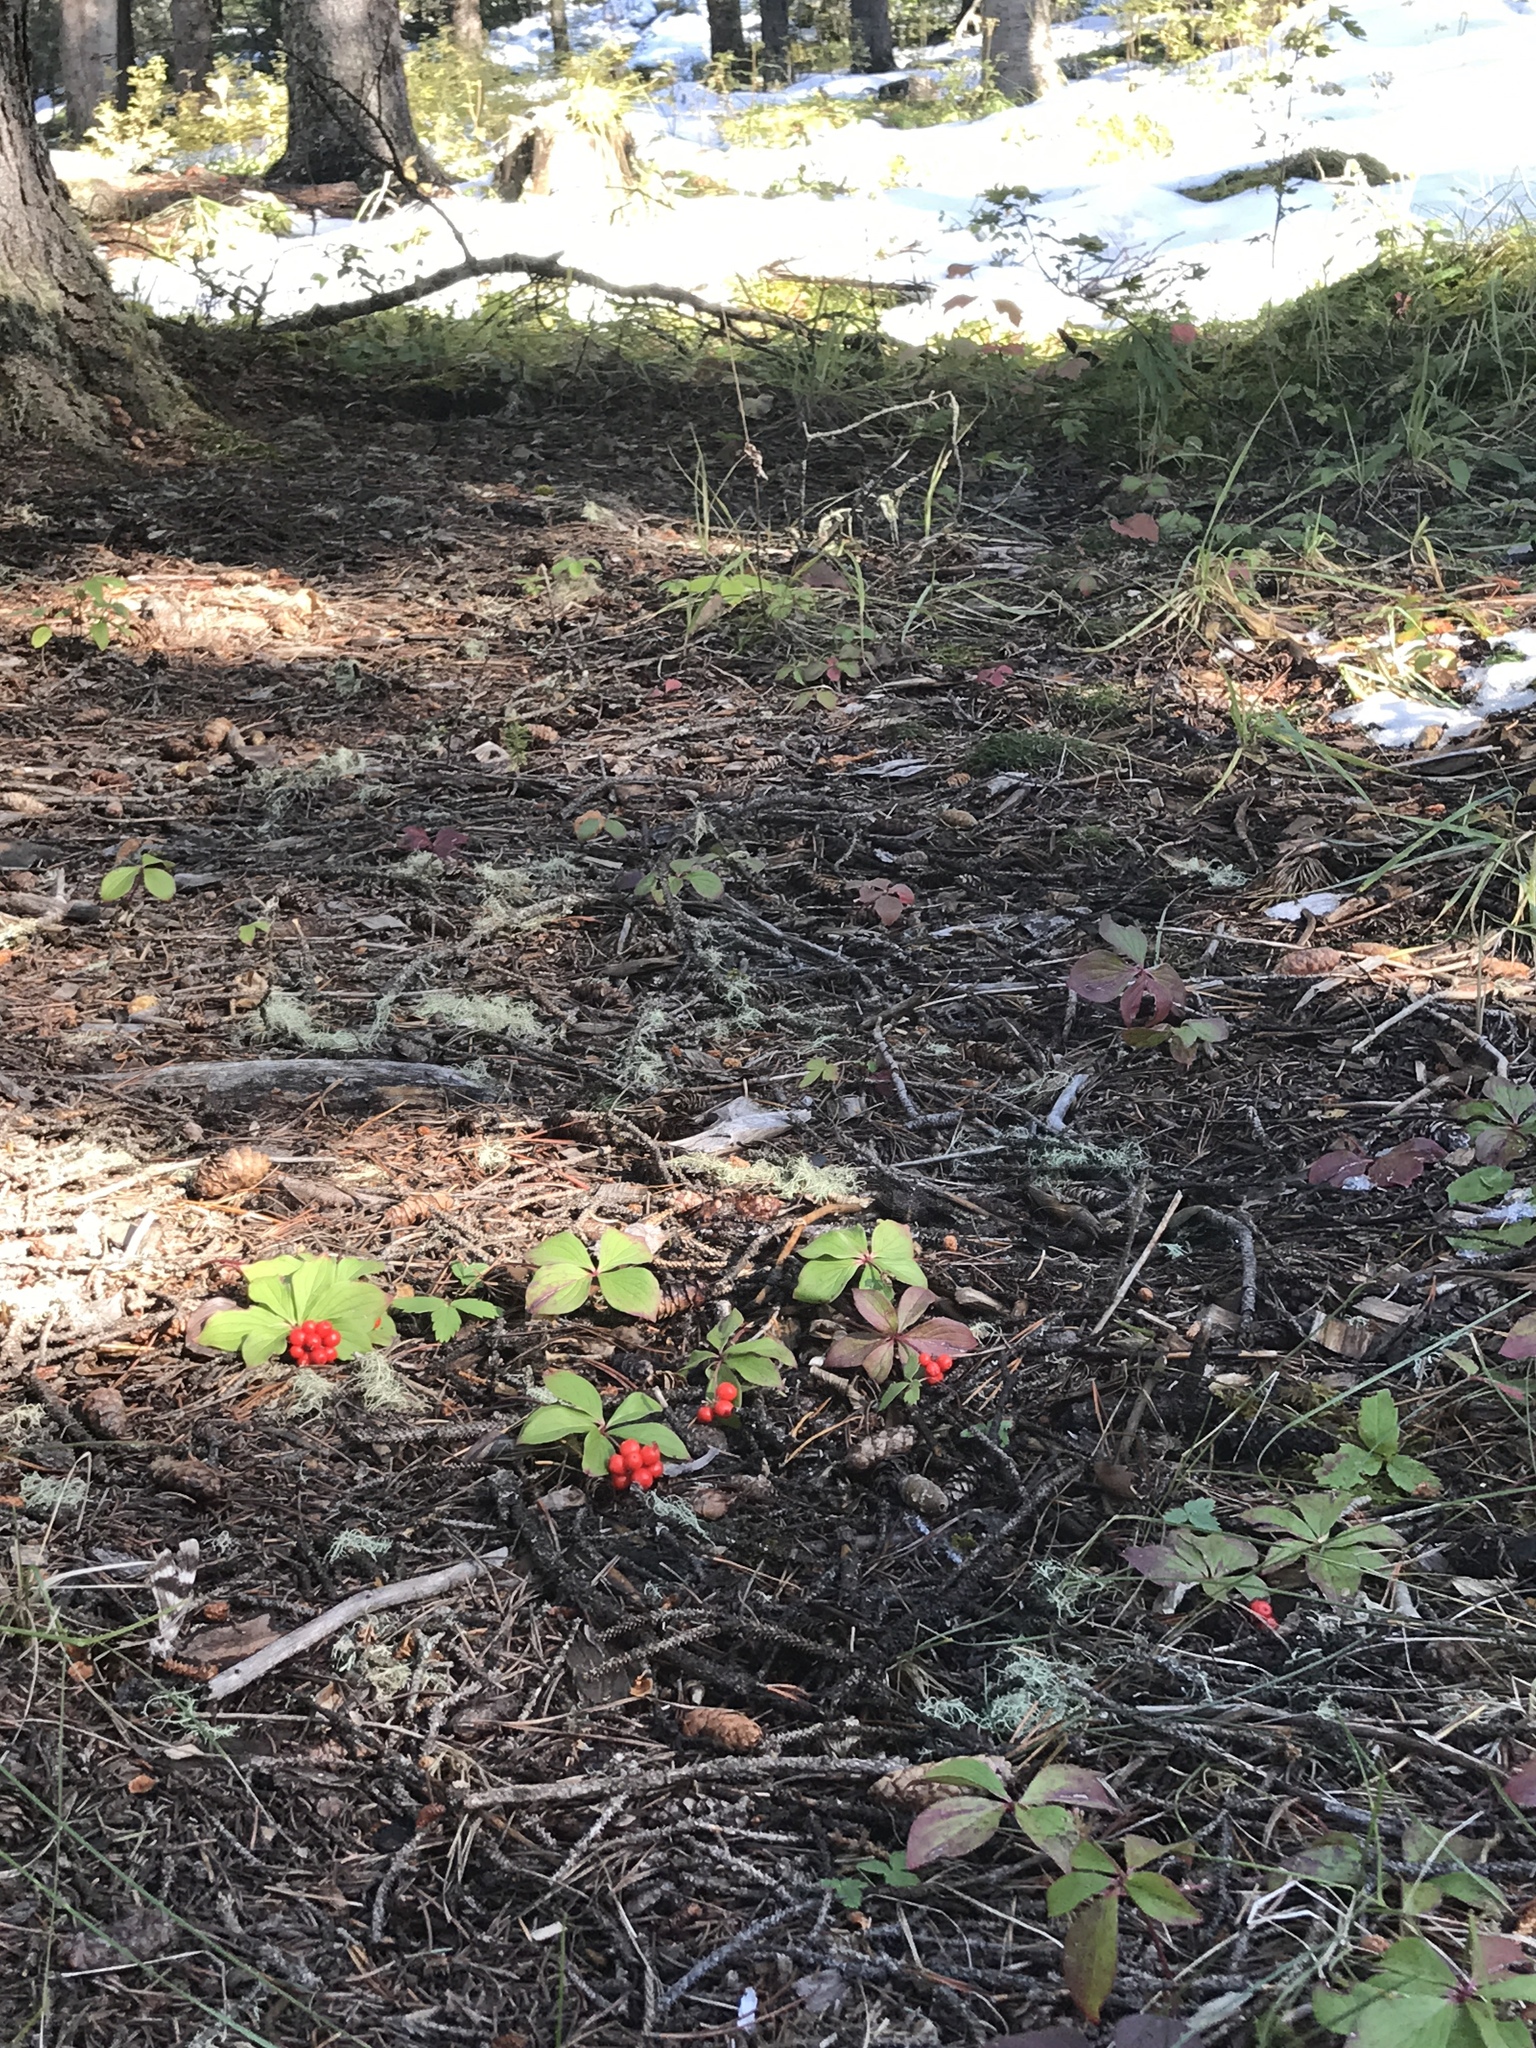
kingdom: Plantae
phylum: Tracheophyta
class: Magnoliopsida
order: Cornales
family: Cornaceae
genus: Cornus
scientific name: Cornus canadensis
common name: Creeping dogwood
